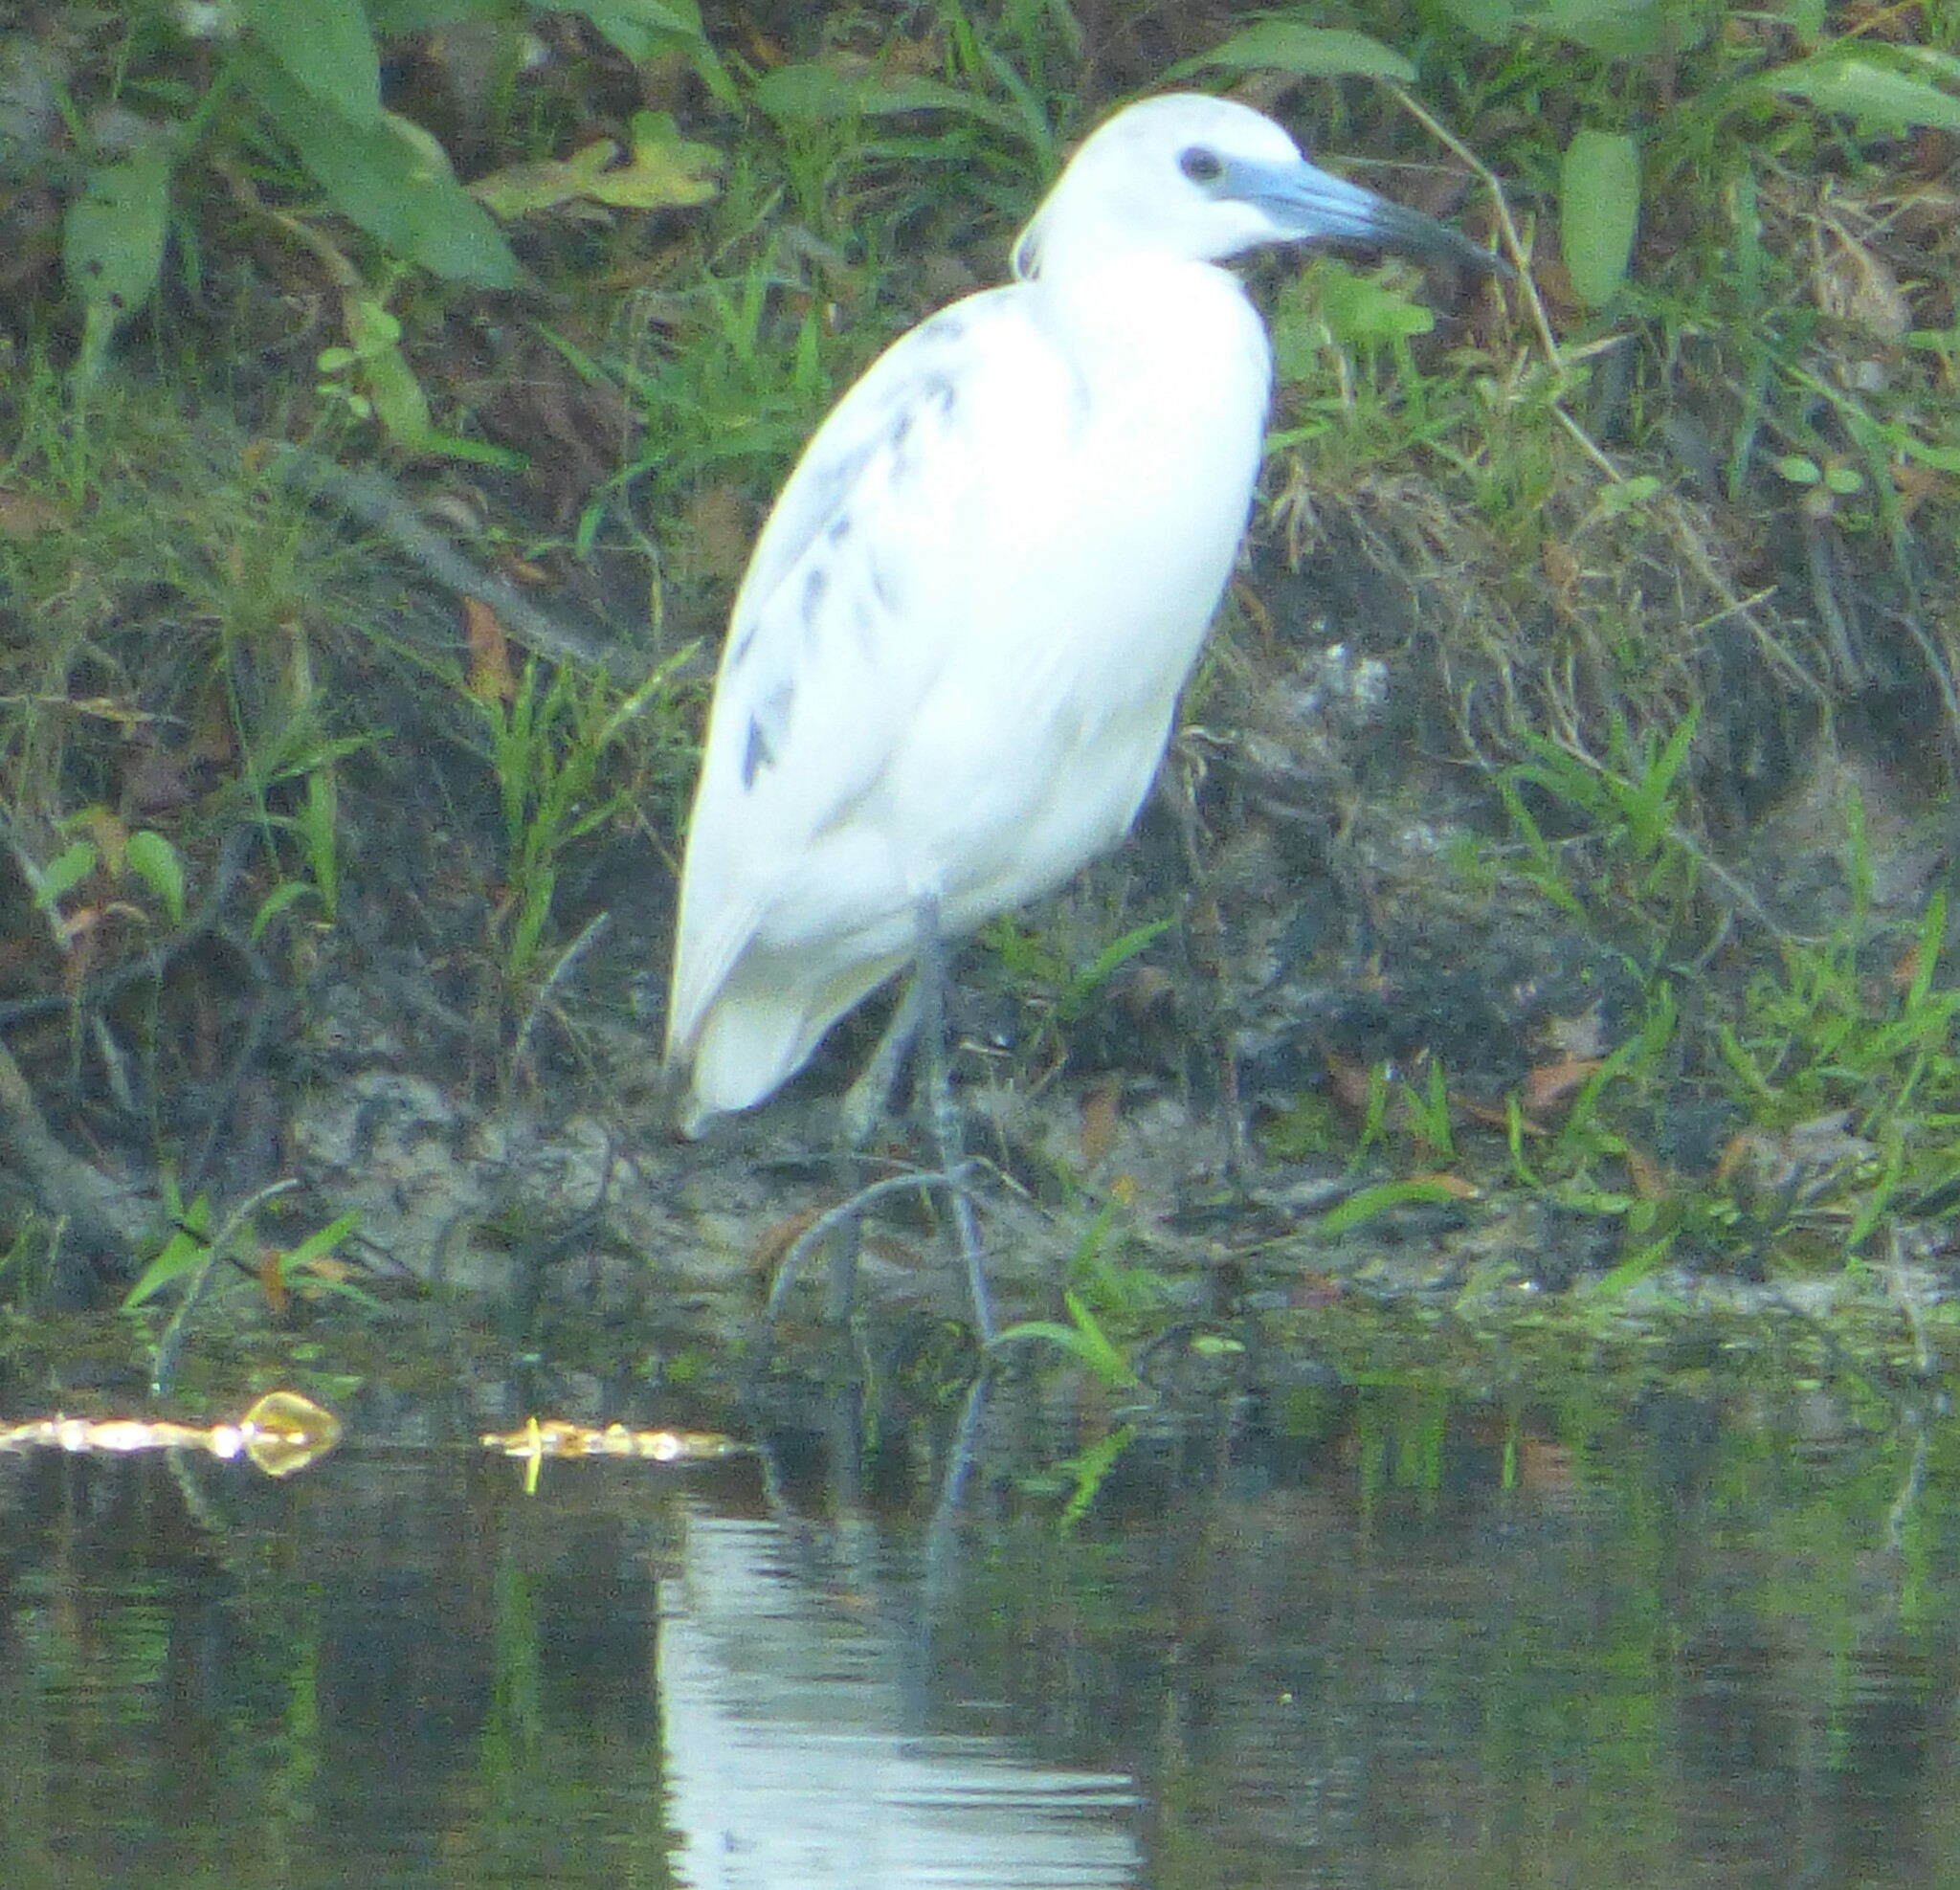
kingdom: Animalia
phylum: Chordata
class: Aves
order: Pelecaniformes
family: Ardeidae
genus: Egretta
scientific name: Egretta caerulea
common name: Little blue heron
